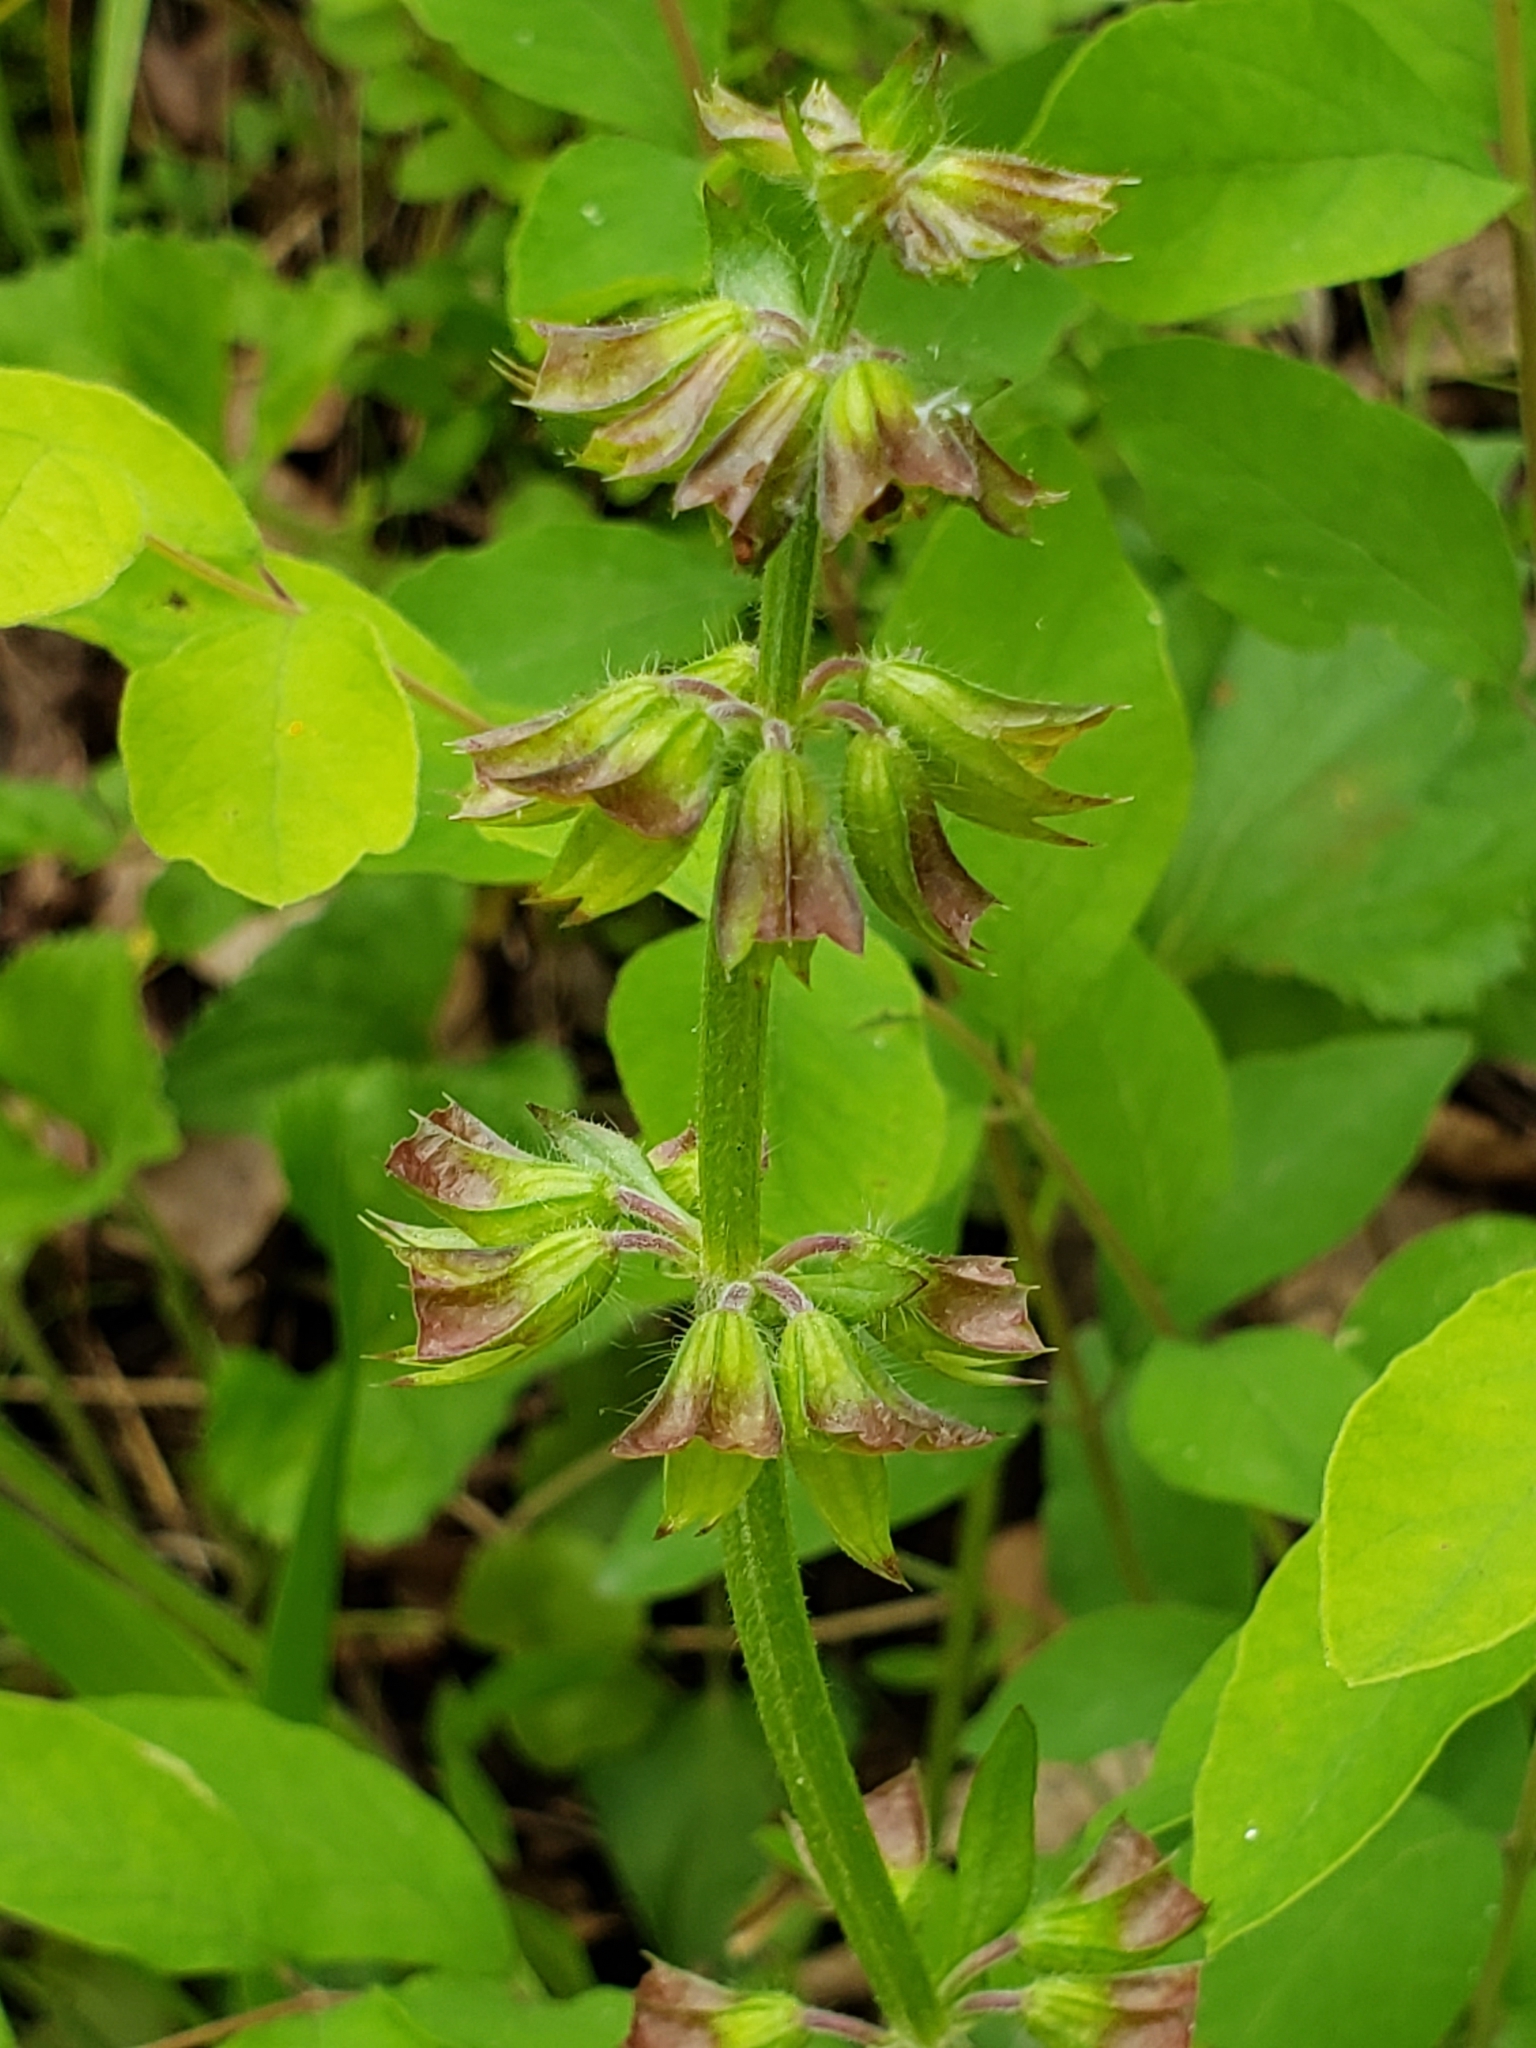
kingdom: Plantae
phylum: Tracheophyta
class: Magnoliopsida
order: Lamiales
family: Lamiaceae
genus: Salvia
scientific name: Salvia lyrata
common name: Cancerweed
